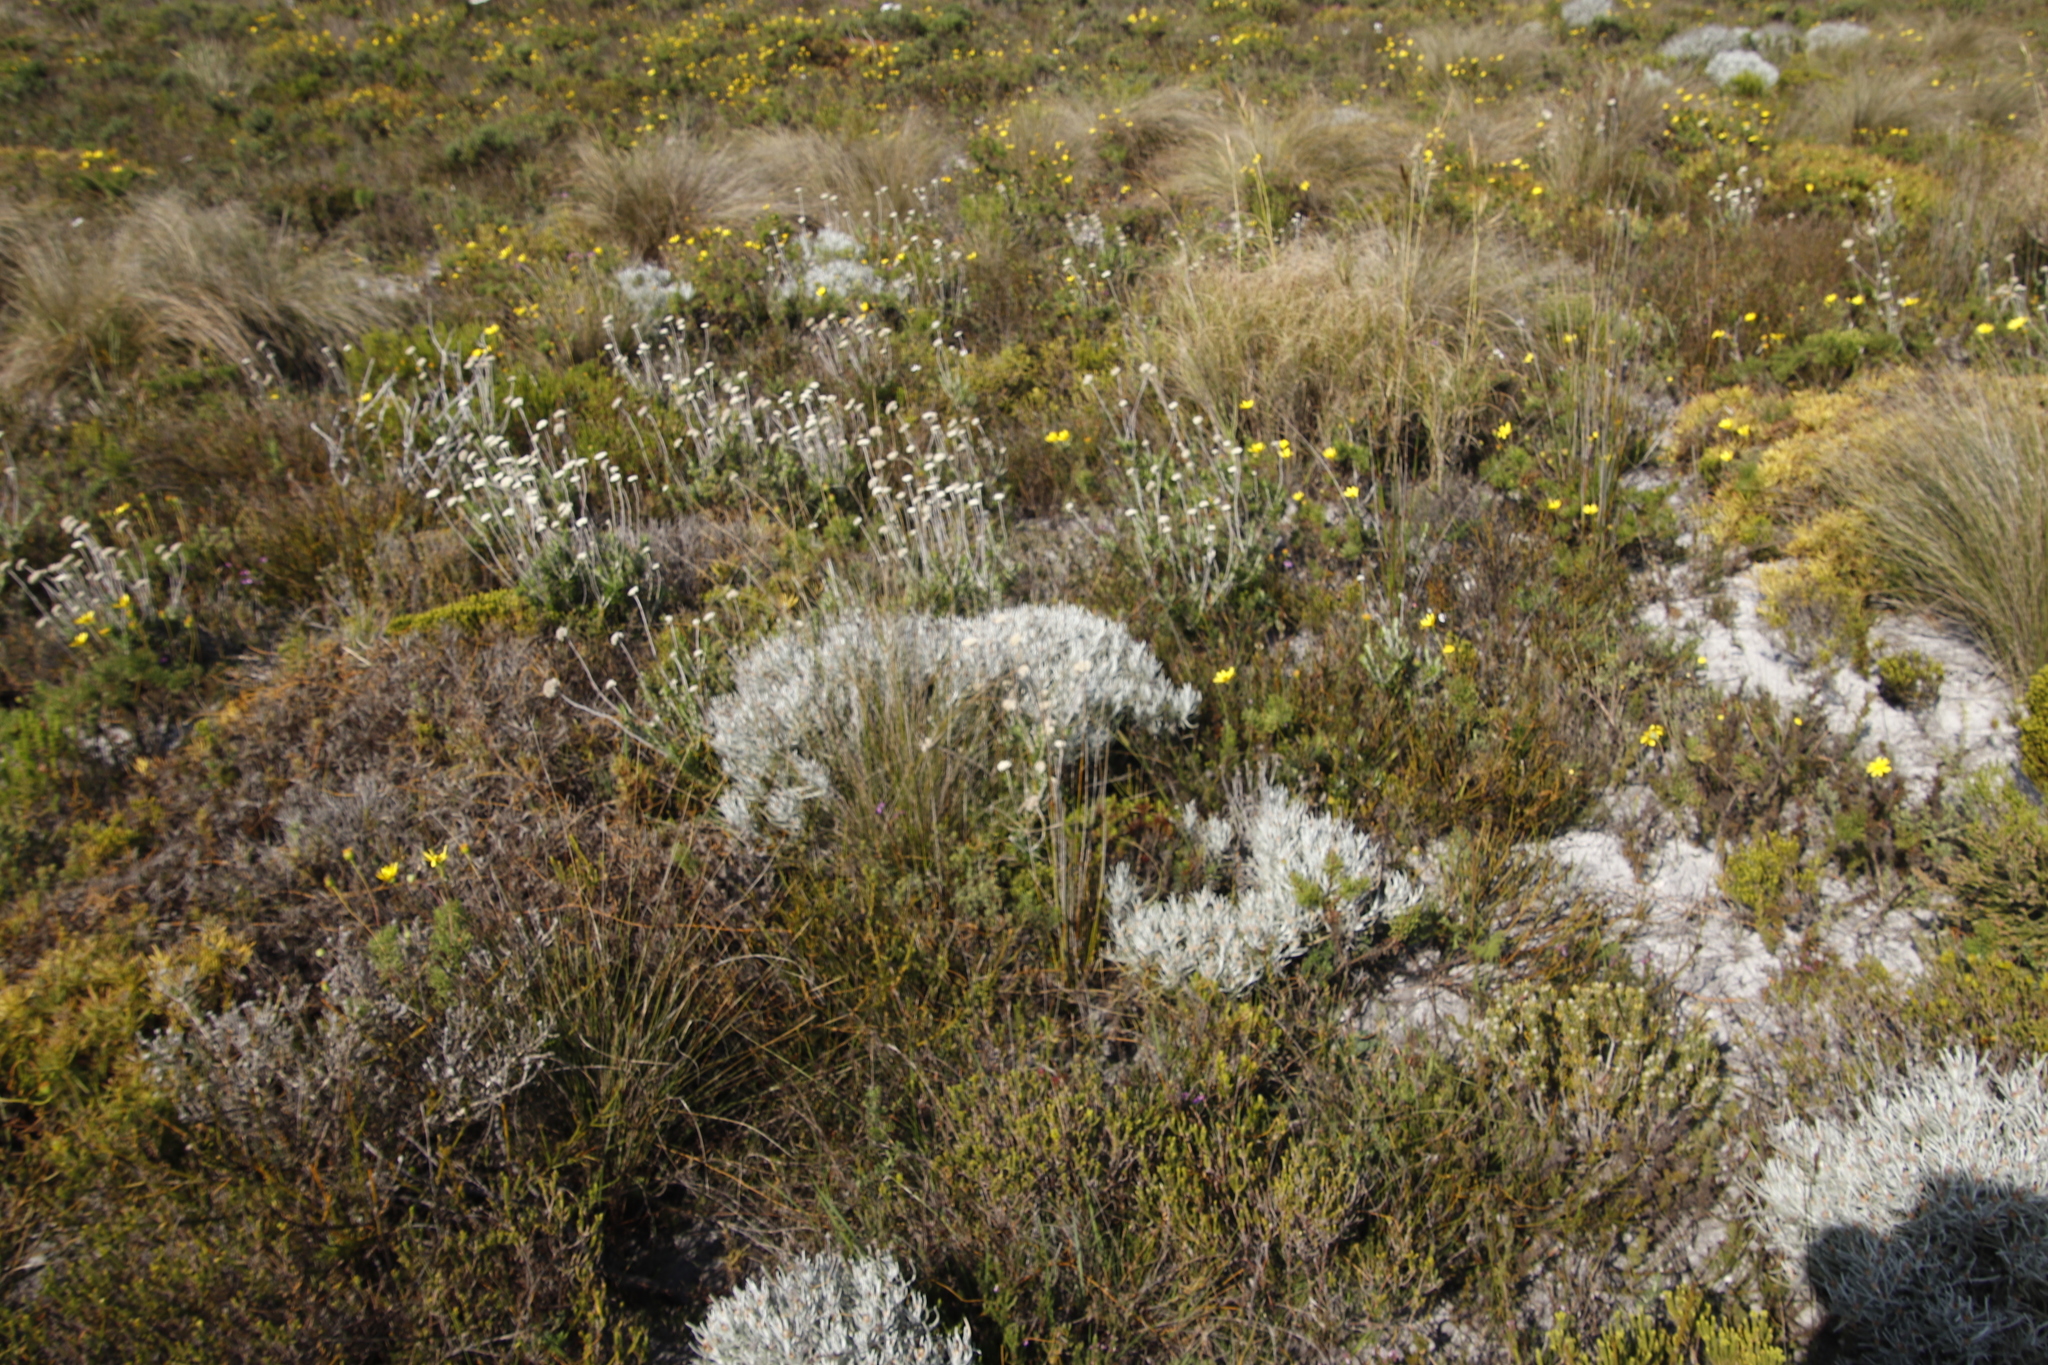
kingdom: Plantae
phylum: Tracheophyta
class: Magnoliopsida
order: Asterales
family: Asteraceae
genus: Syncarpha
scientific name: Syncarpha gnaphaloides
